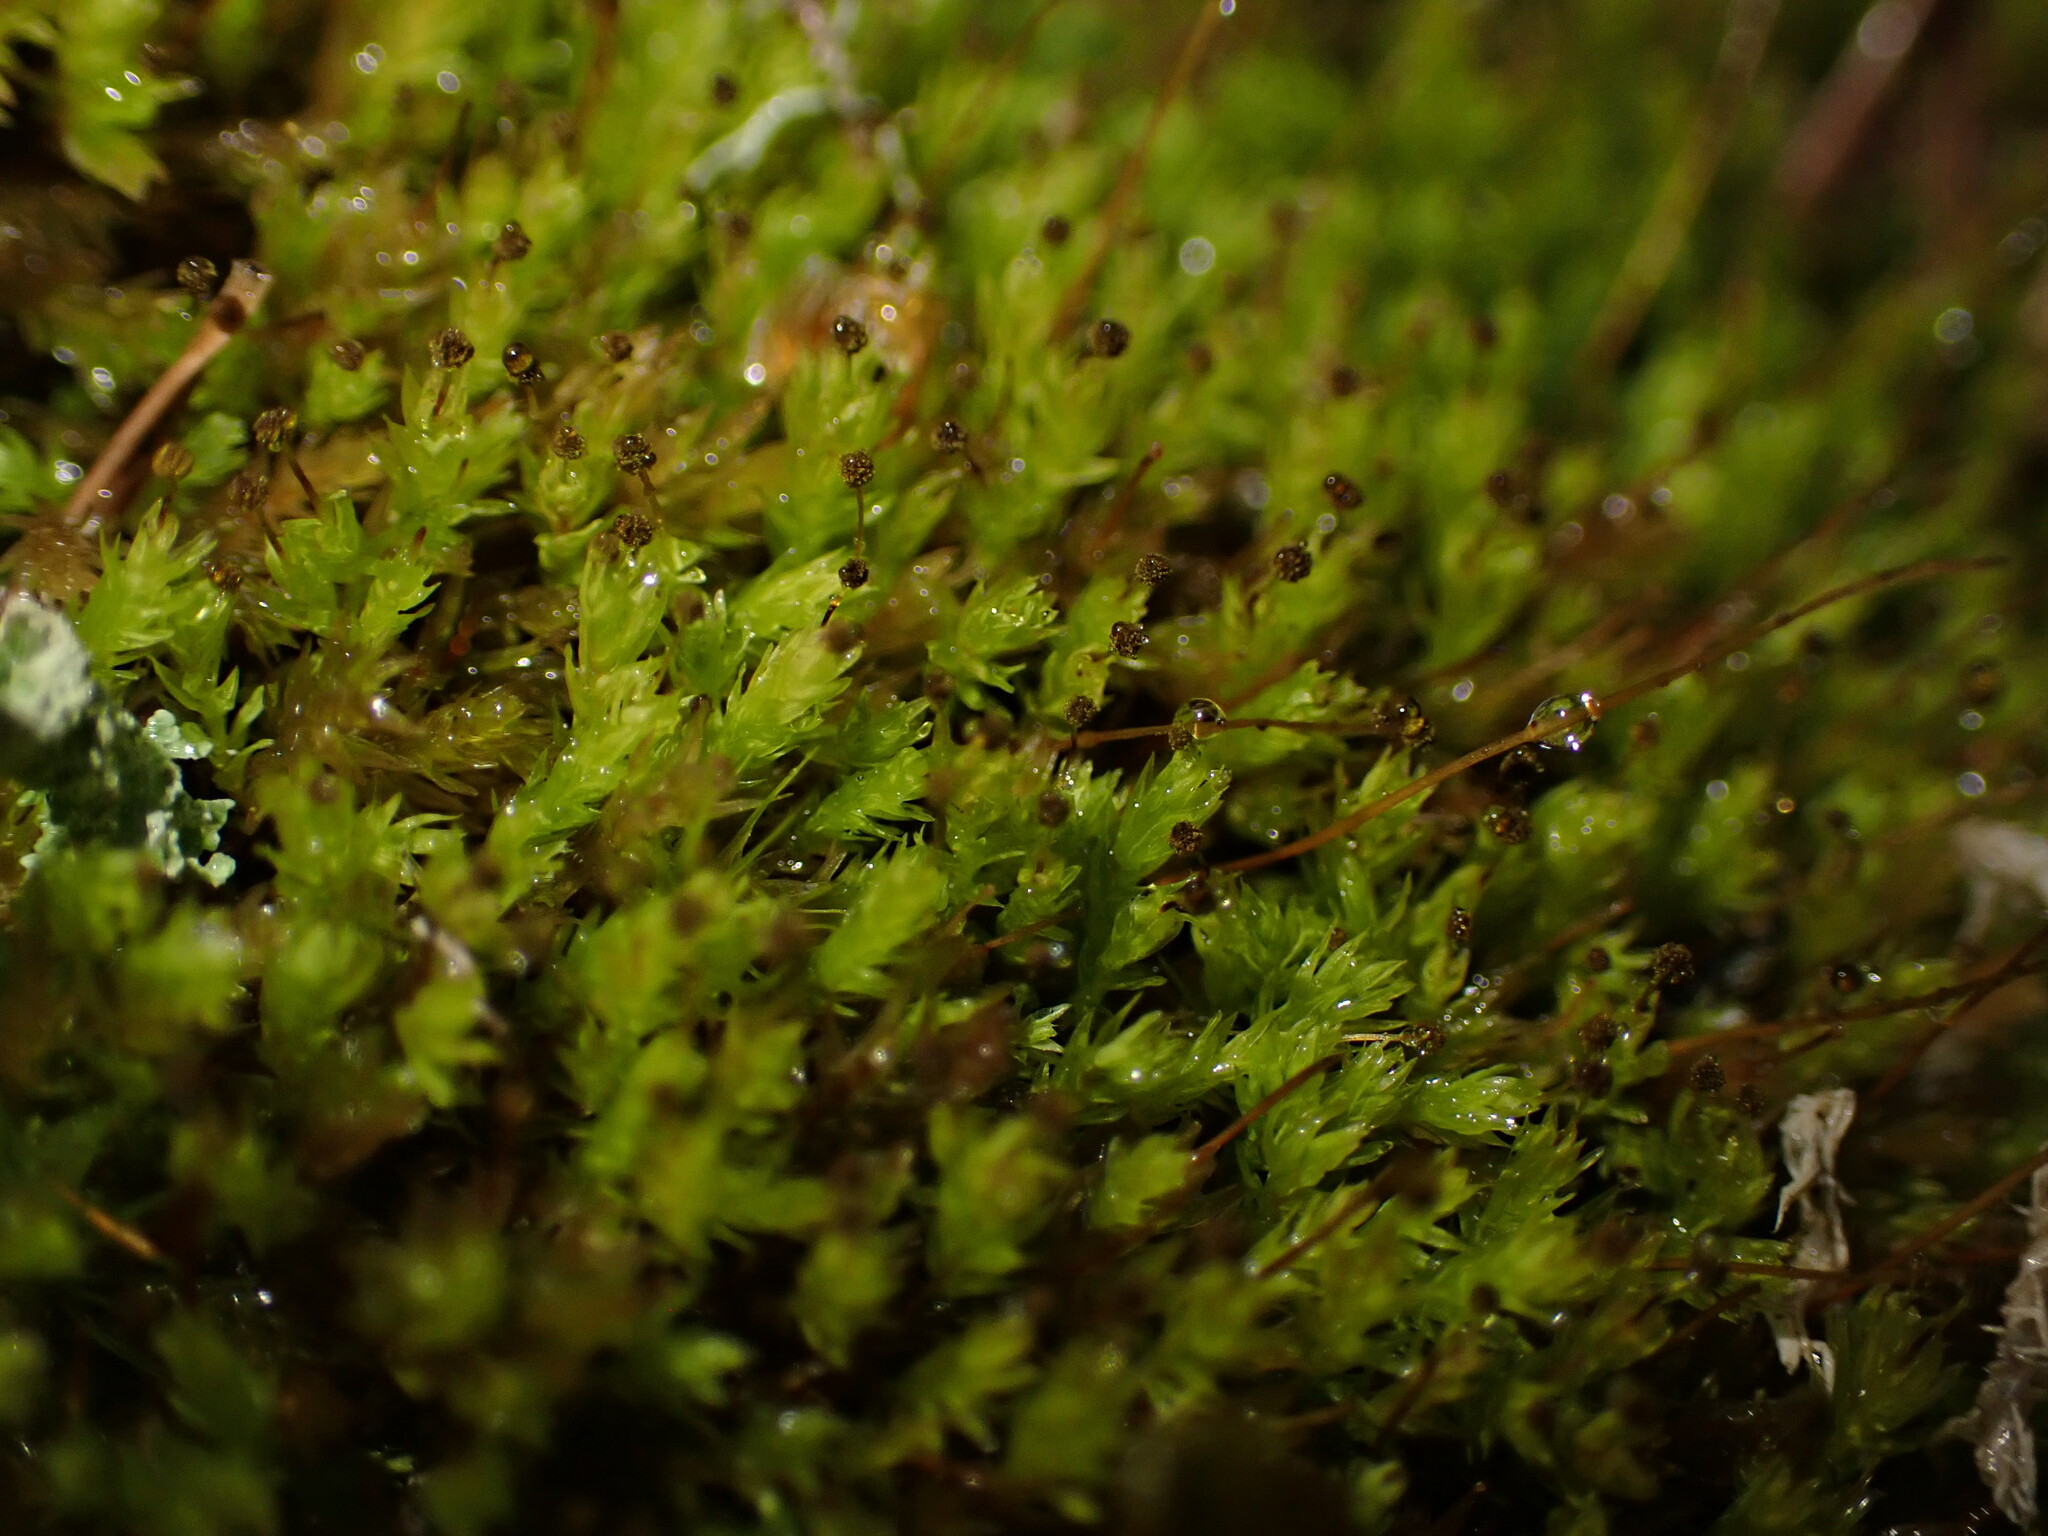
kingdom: Plantae
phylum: Bryophyta
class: Bryopsida
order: Aulacomniales
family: Aulacomniaceae
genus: Aulacomnium
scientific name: Aulacomnium androgynum
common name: Little groove moss
